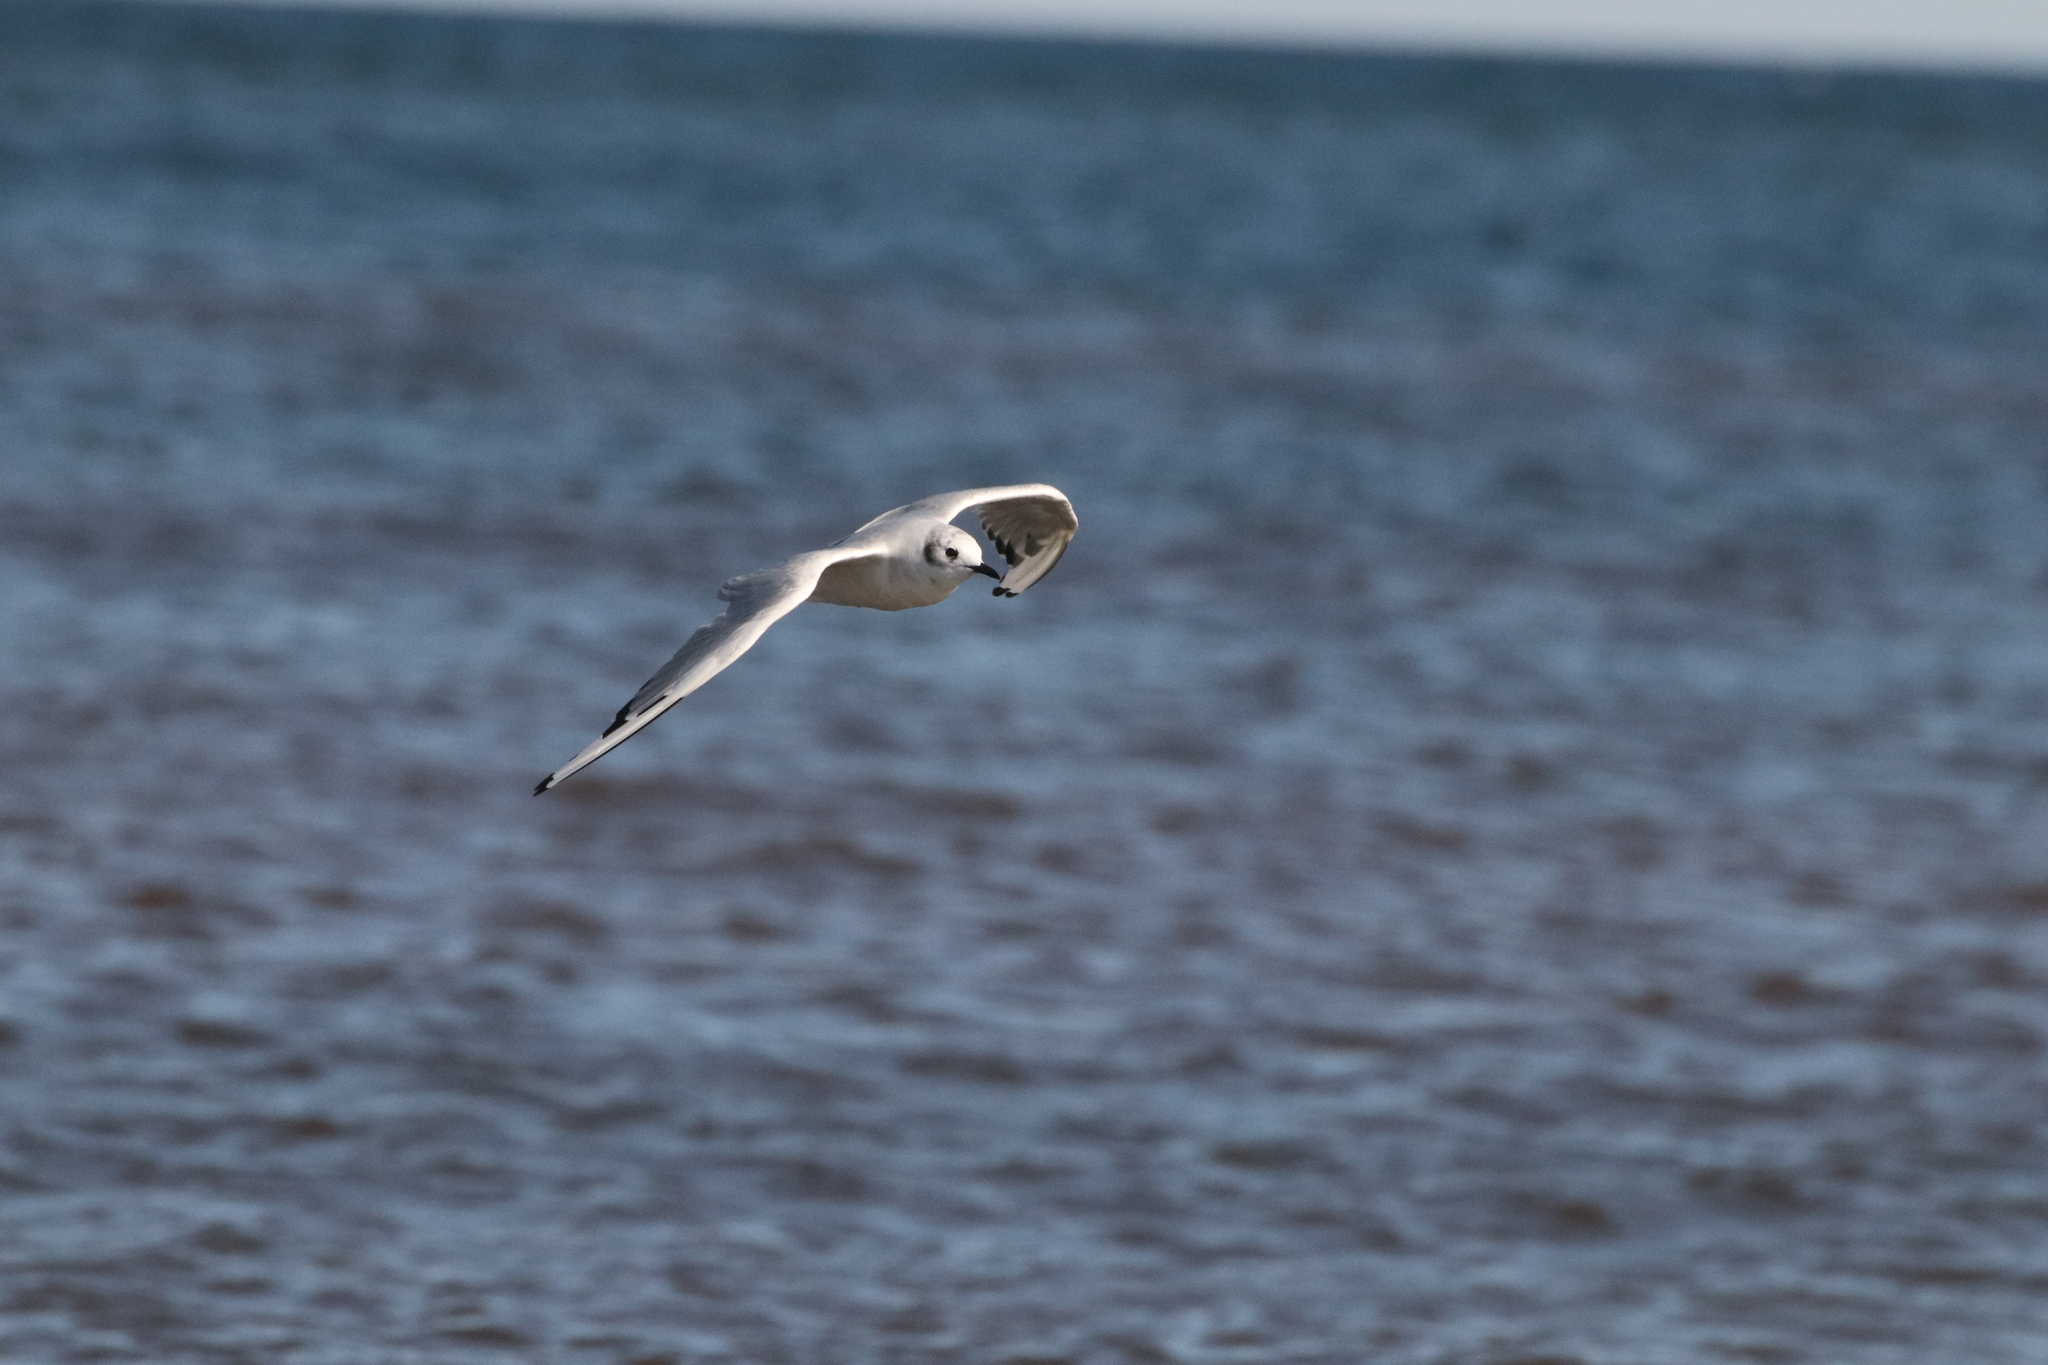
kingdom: Animalia
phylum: Chordata
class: Aves
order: Charadriiformes
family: Laridae
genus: Chroicocephalus
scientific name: Chroicocephalus philadelphia
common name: Bonaparte's gull
